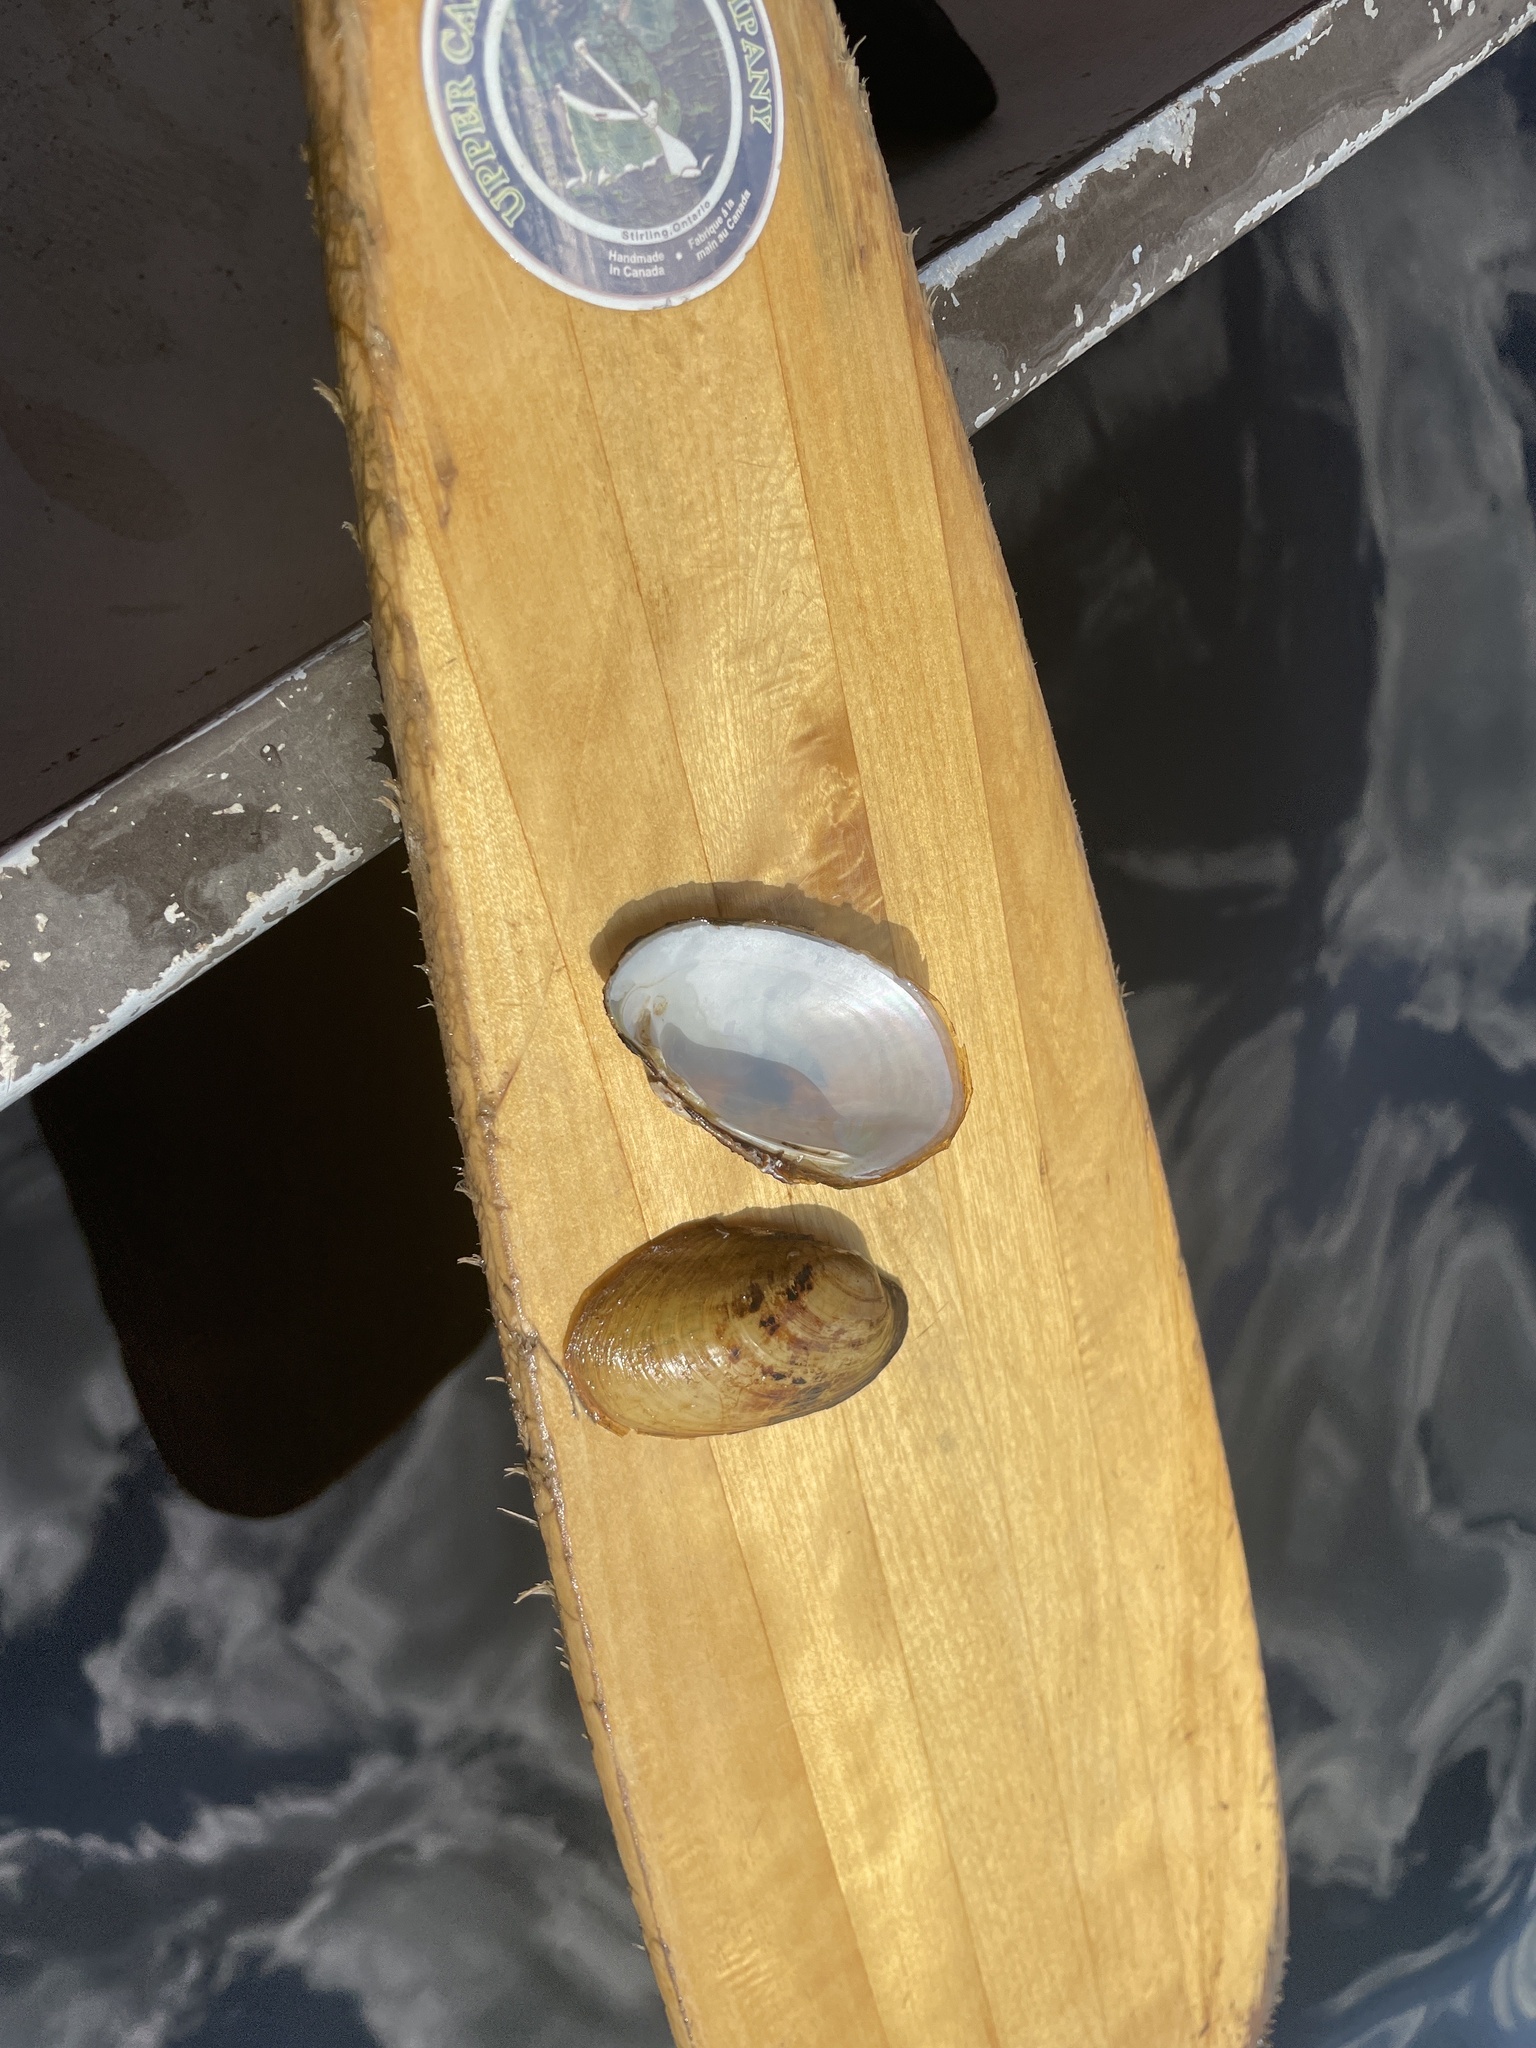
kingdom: Animalia
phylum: Mollusca
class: Bivalvia
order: Unionida
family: Unionidae
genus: Lampsilis
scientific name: Lampsilis siliquoidea
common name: Fatmucket
